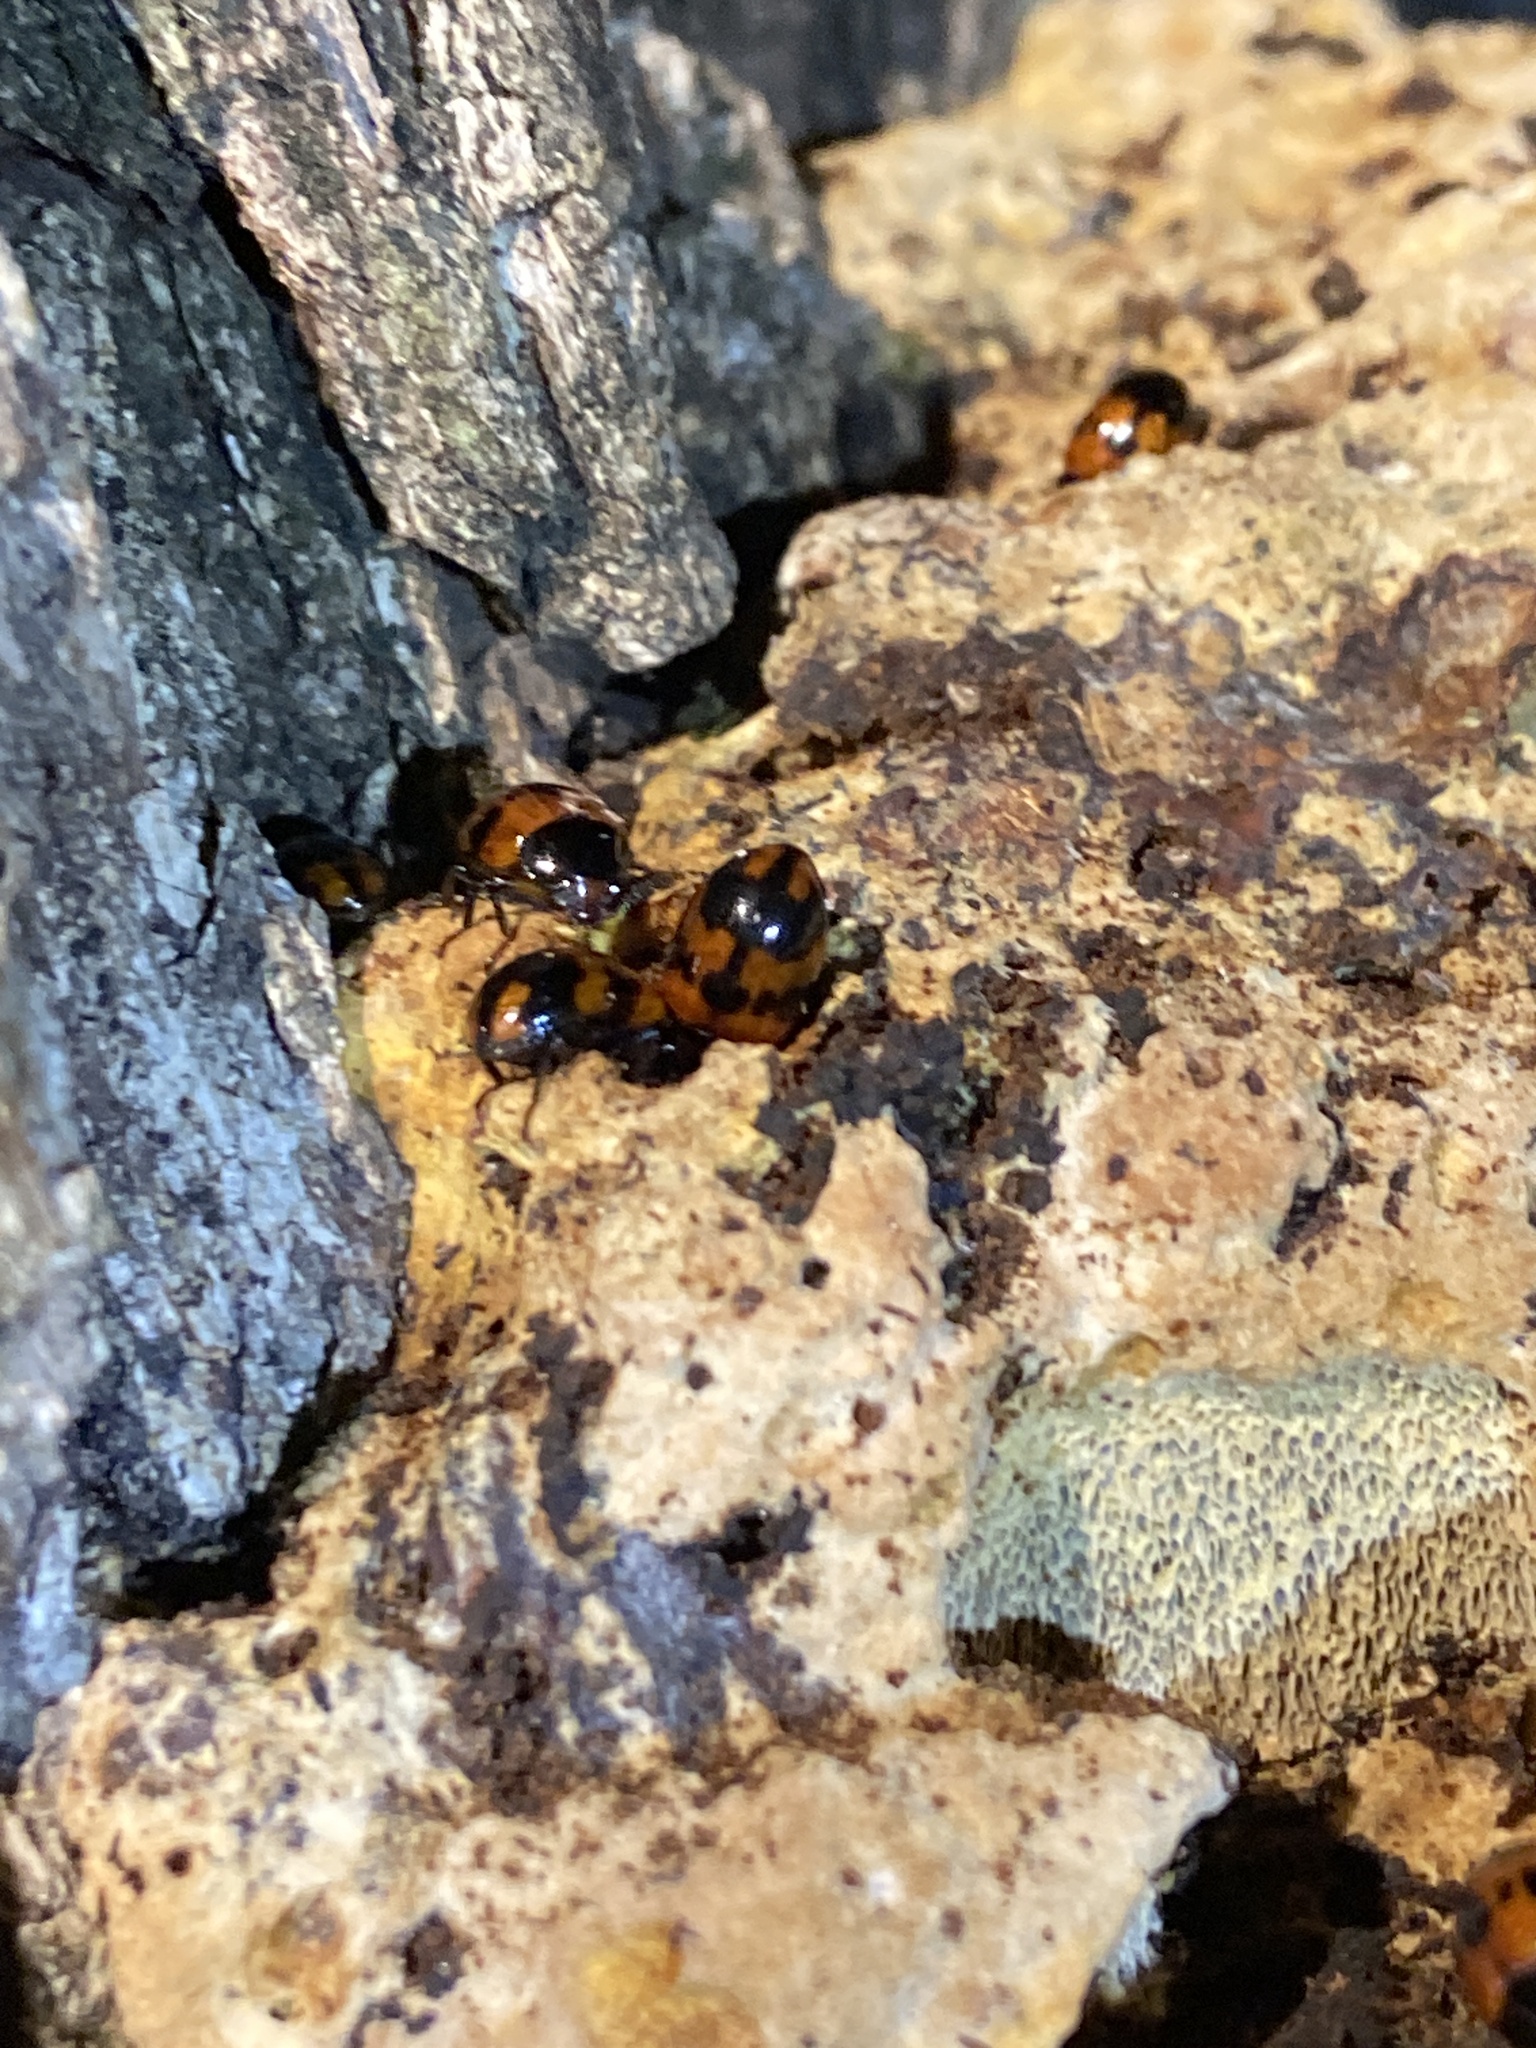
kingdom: Animalia
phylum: Arthropoda
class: Insecta
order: Coleoptera
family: Tenebrionidae
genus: Diaperis
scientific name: Diaperis nigronotata
